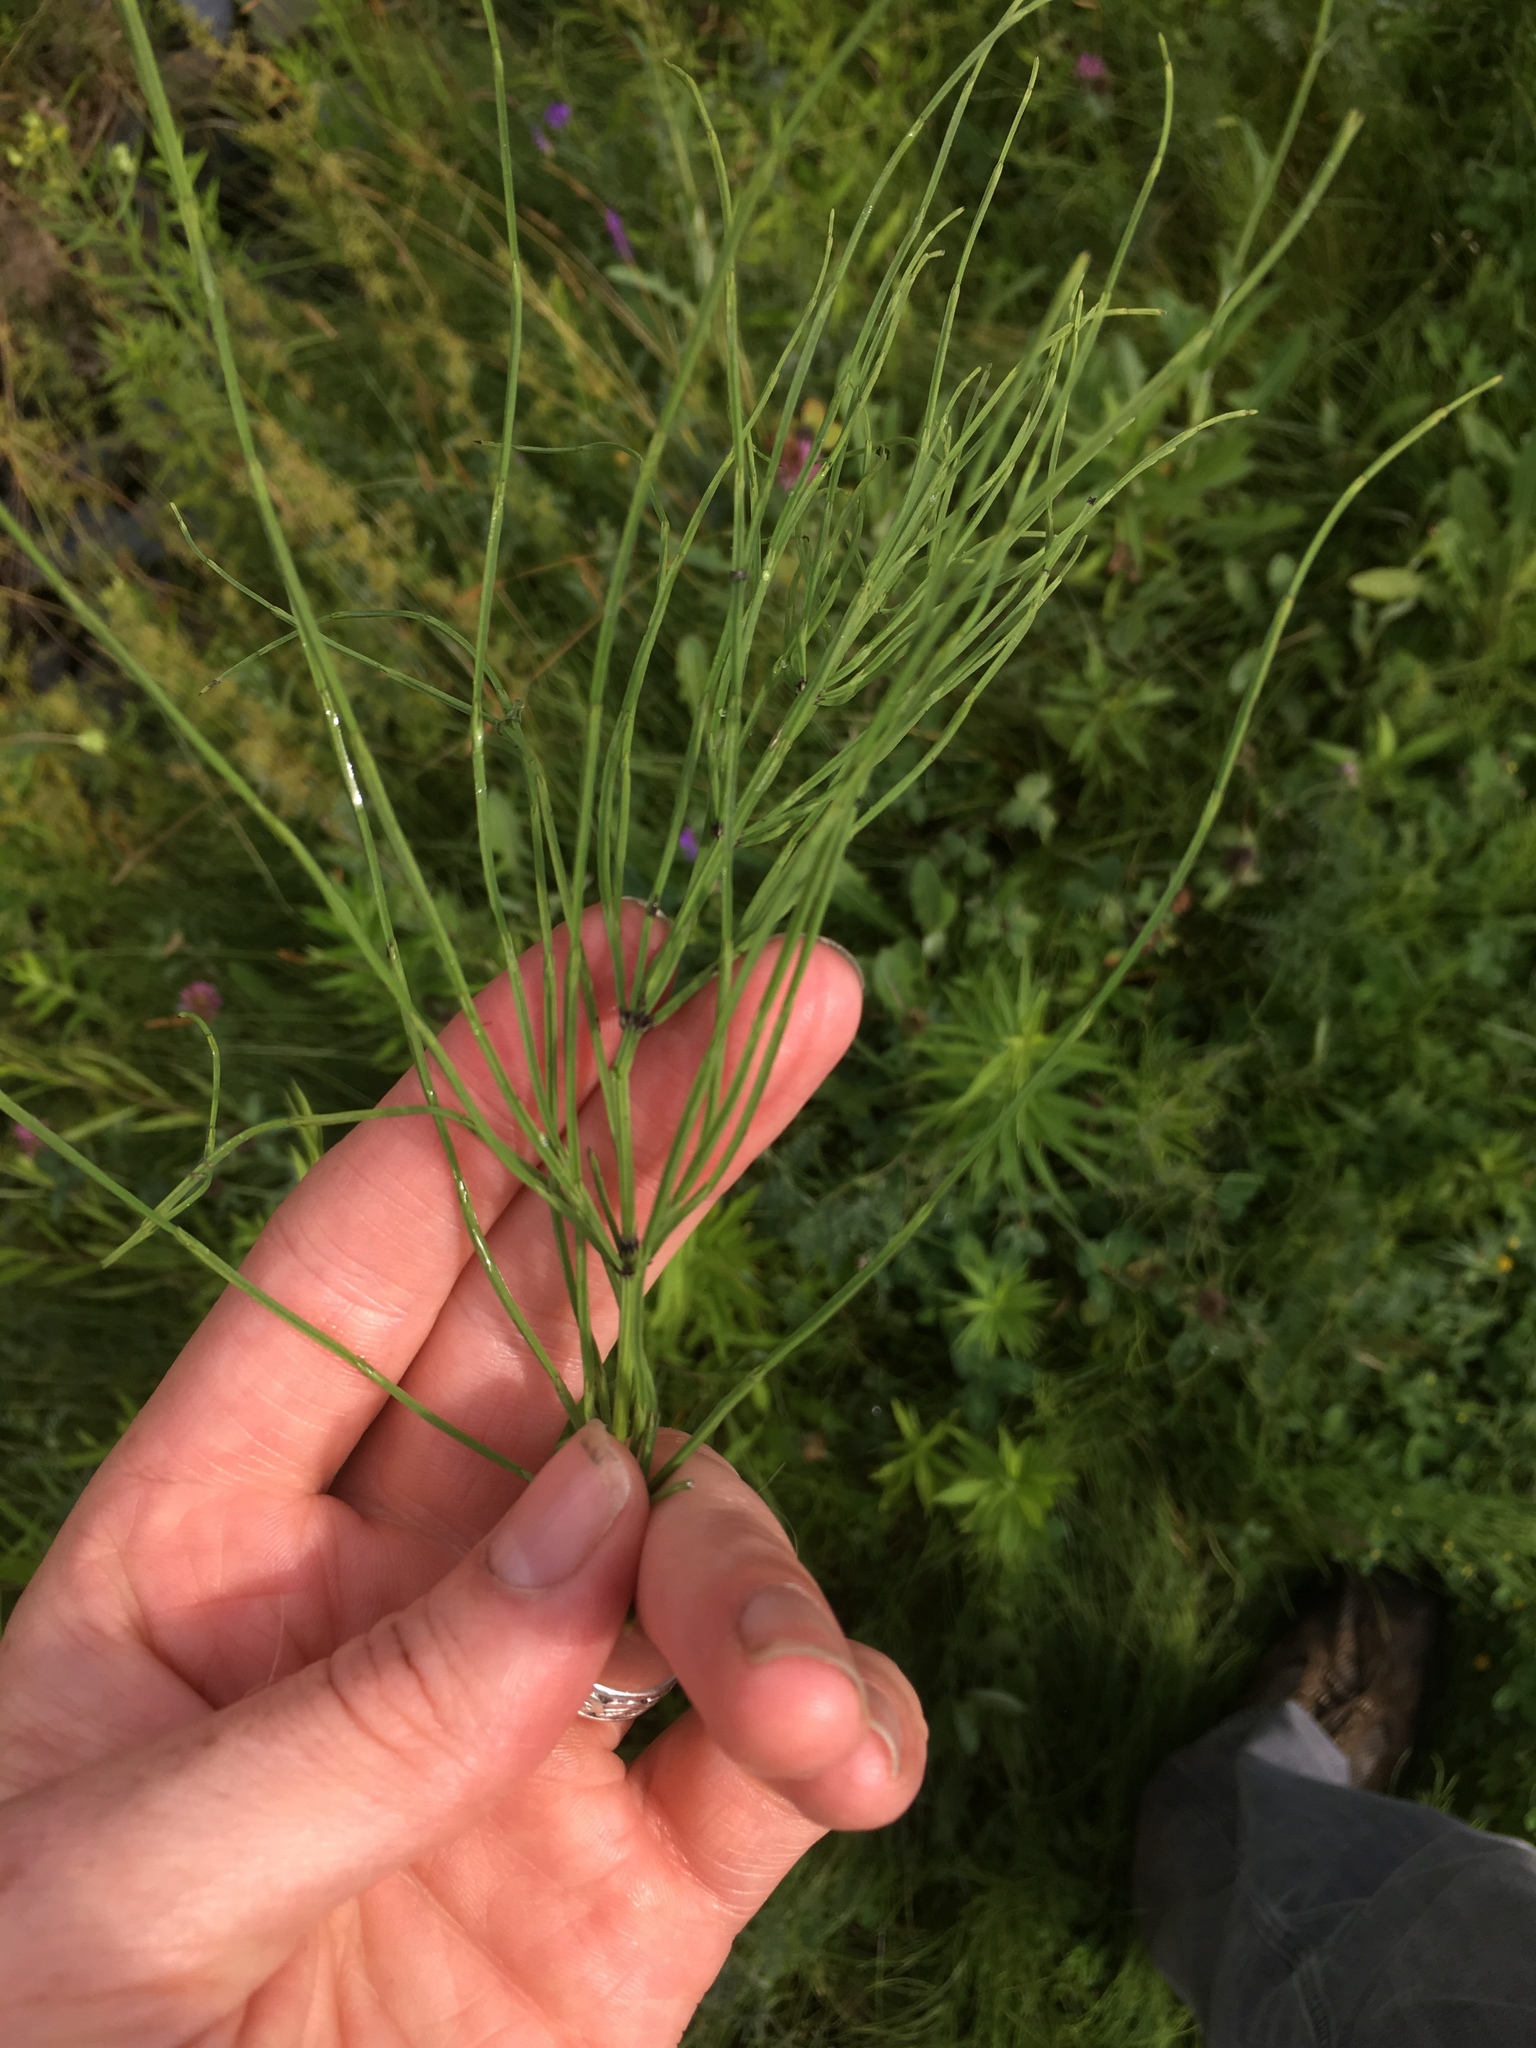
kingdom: Plantae
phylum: Tracheophyta
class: Polypodiopsida
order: Equisetales
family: Equisetaceae
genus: Equisetum
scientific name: Equisetum arvense
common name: Field horsetail
